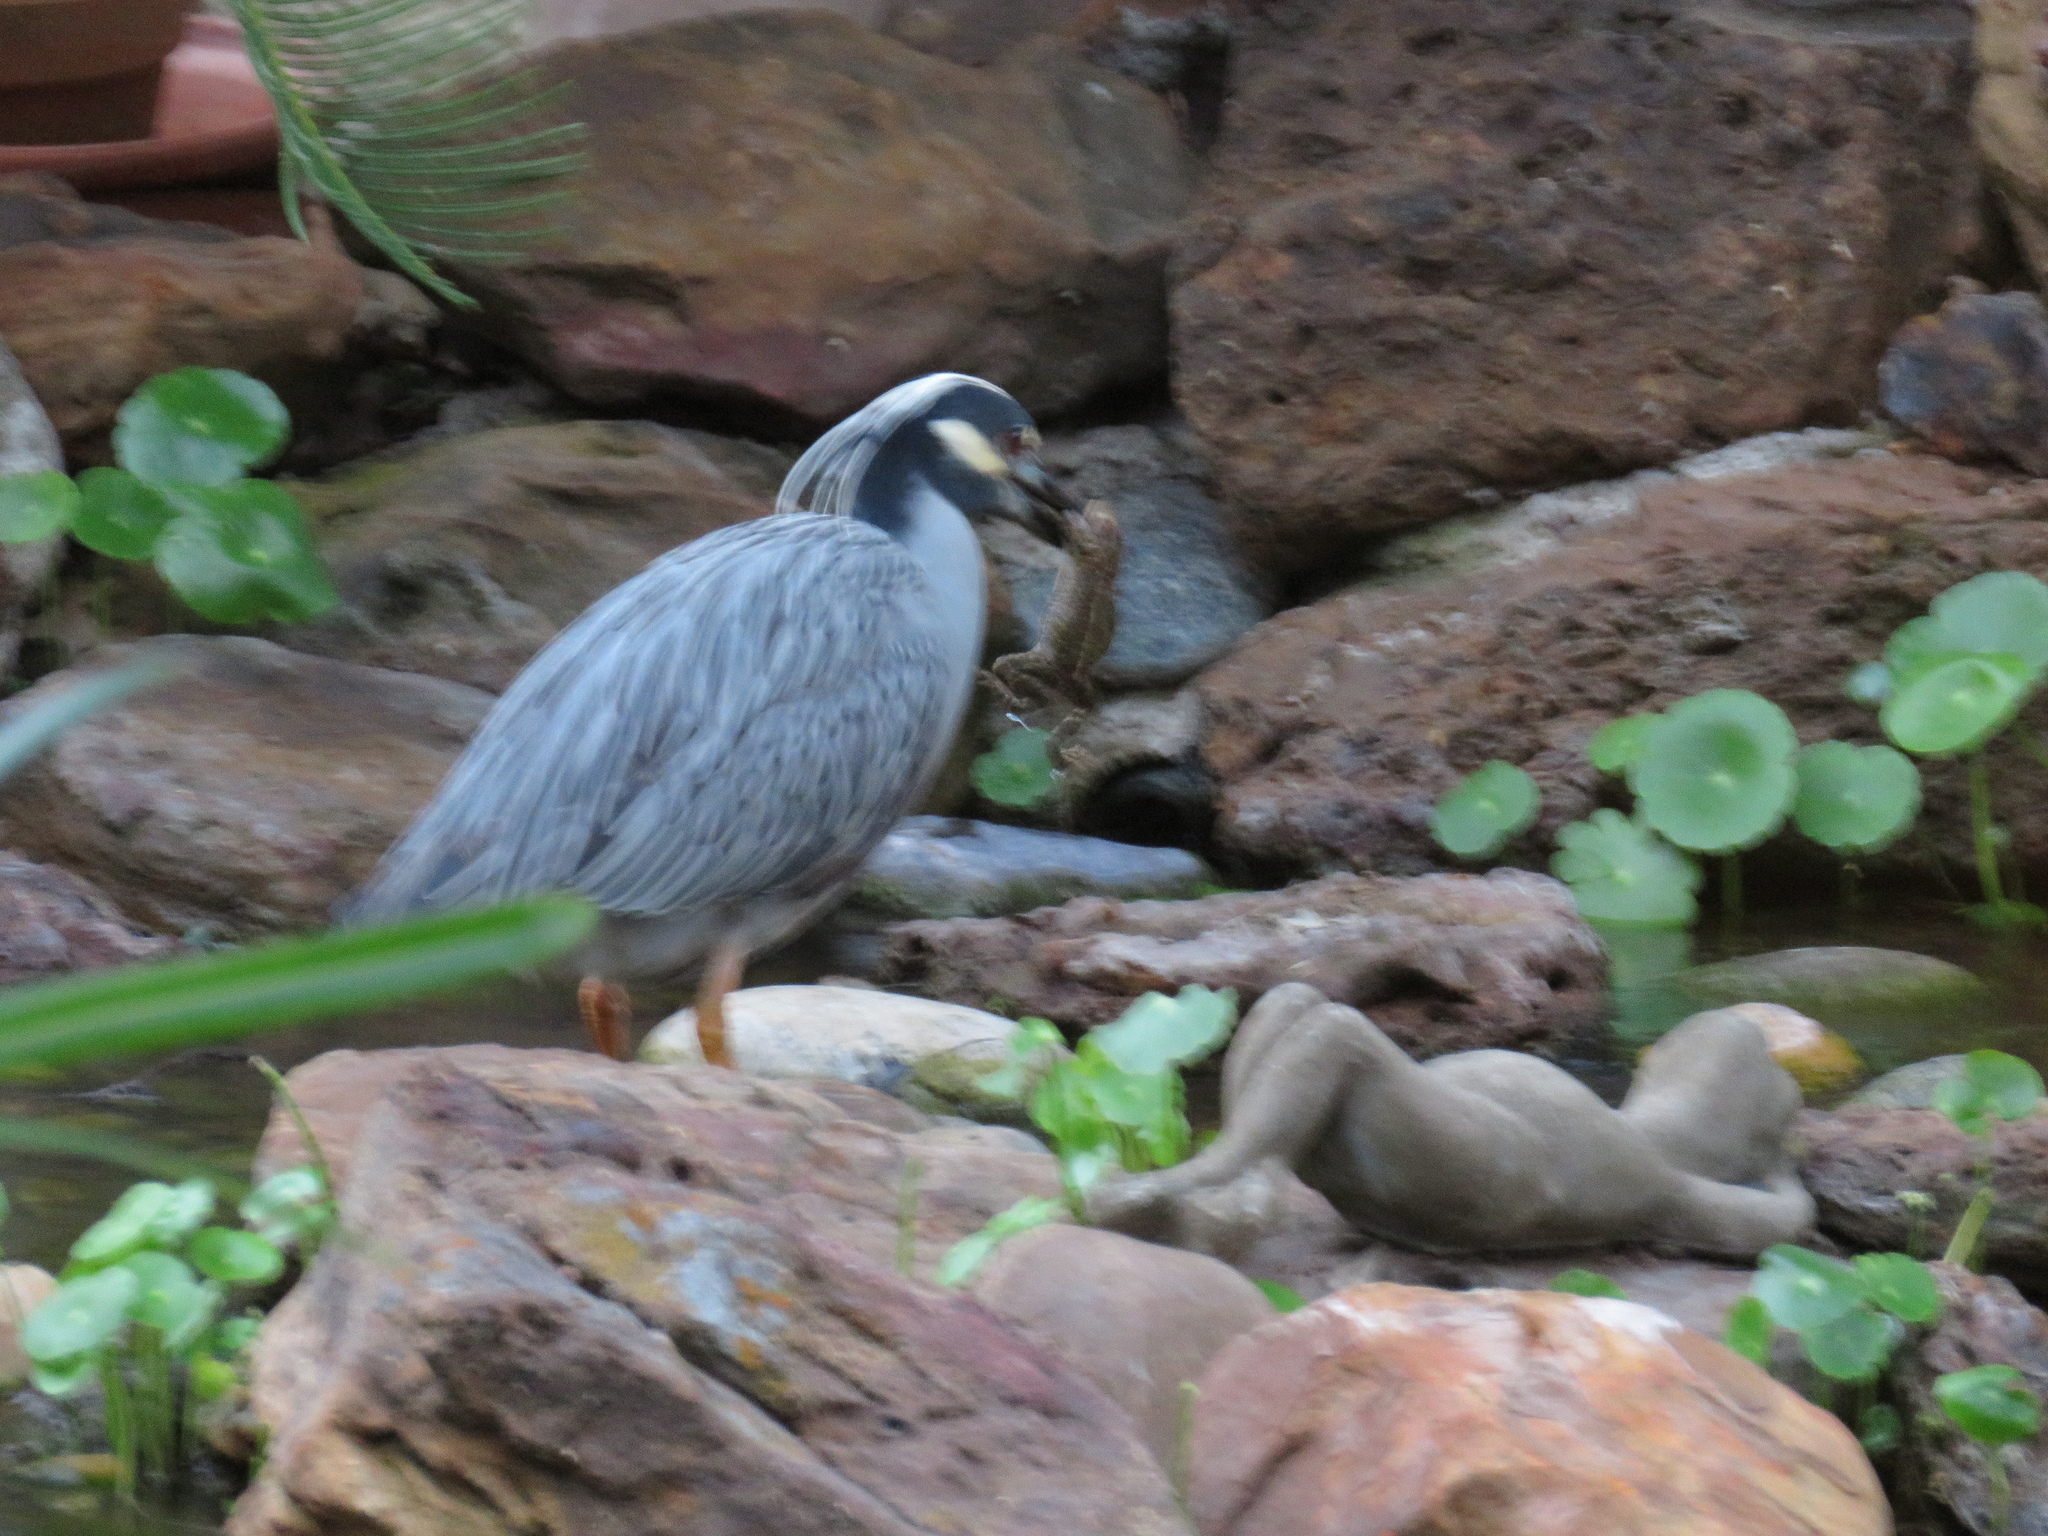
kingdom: Animalia
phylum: Chordata
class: Aves
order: Pelecaniformes
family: Ardeidae
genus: Nyctanassa
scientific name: Nyctanassa violacea
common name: Yellow-crowned night heron
